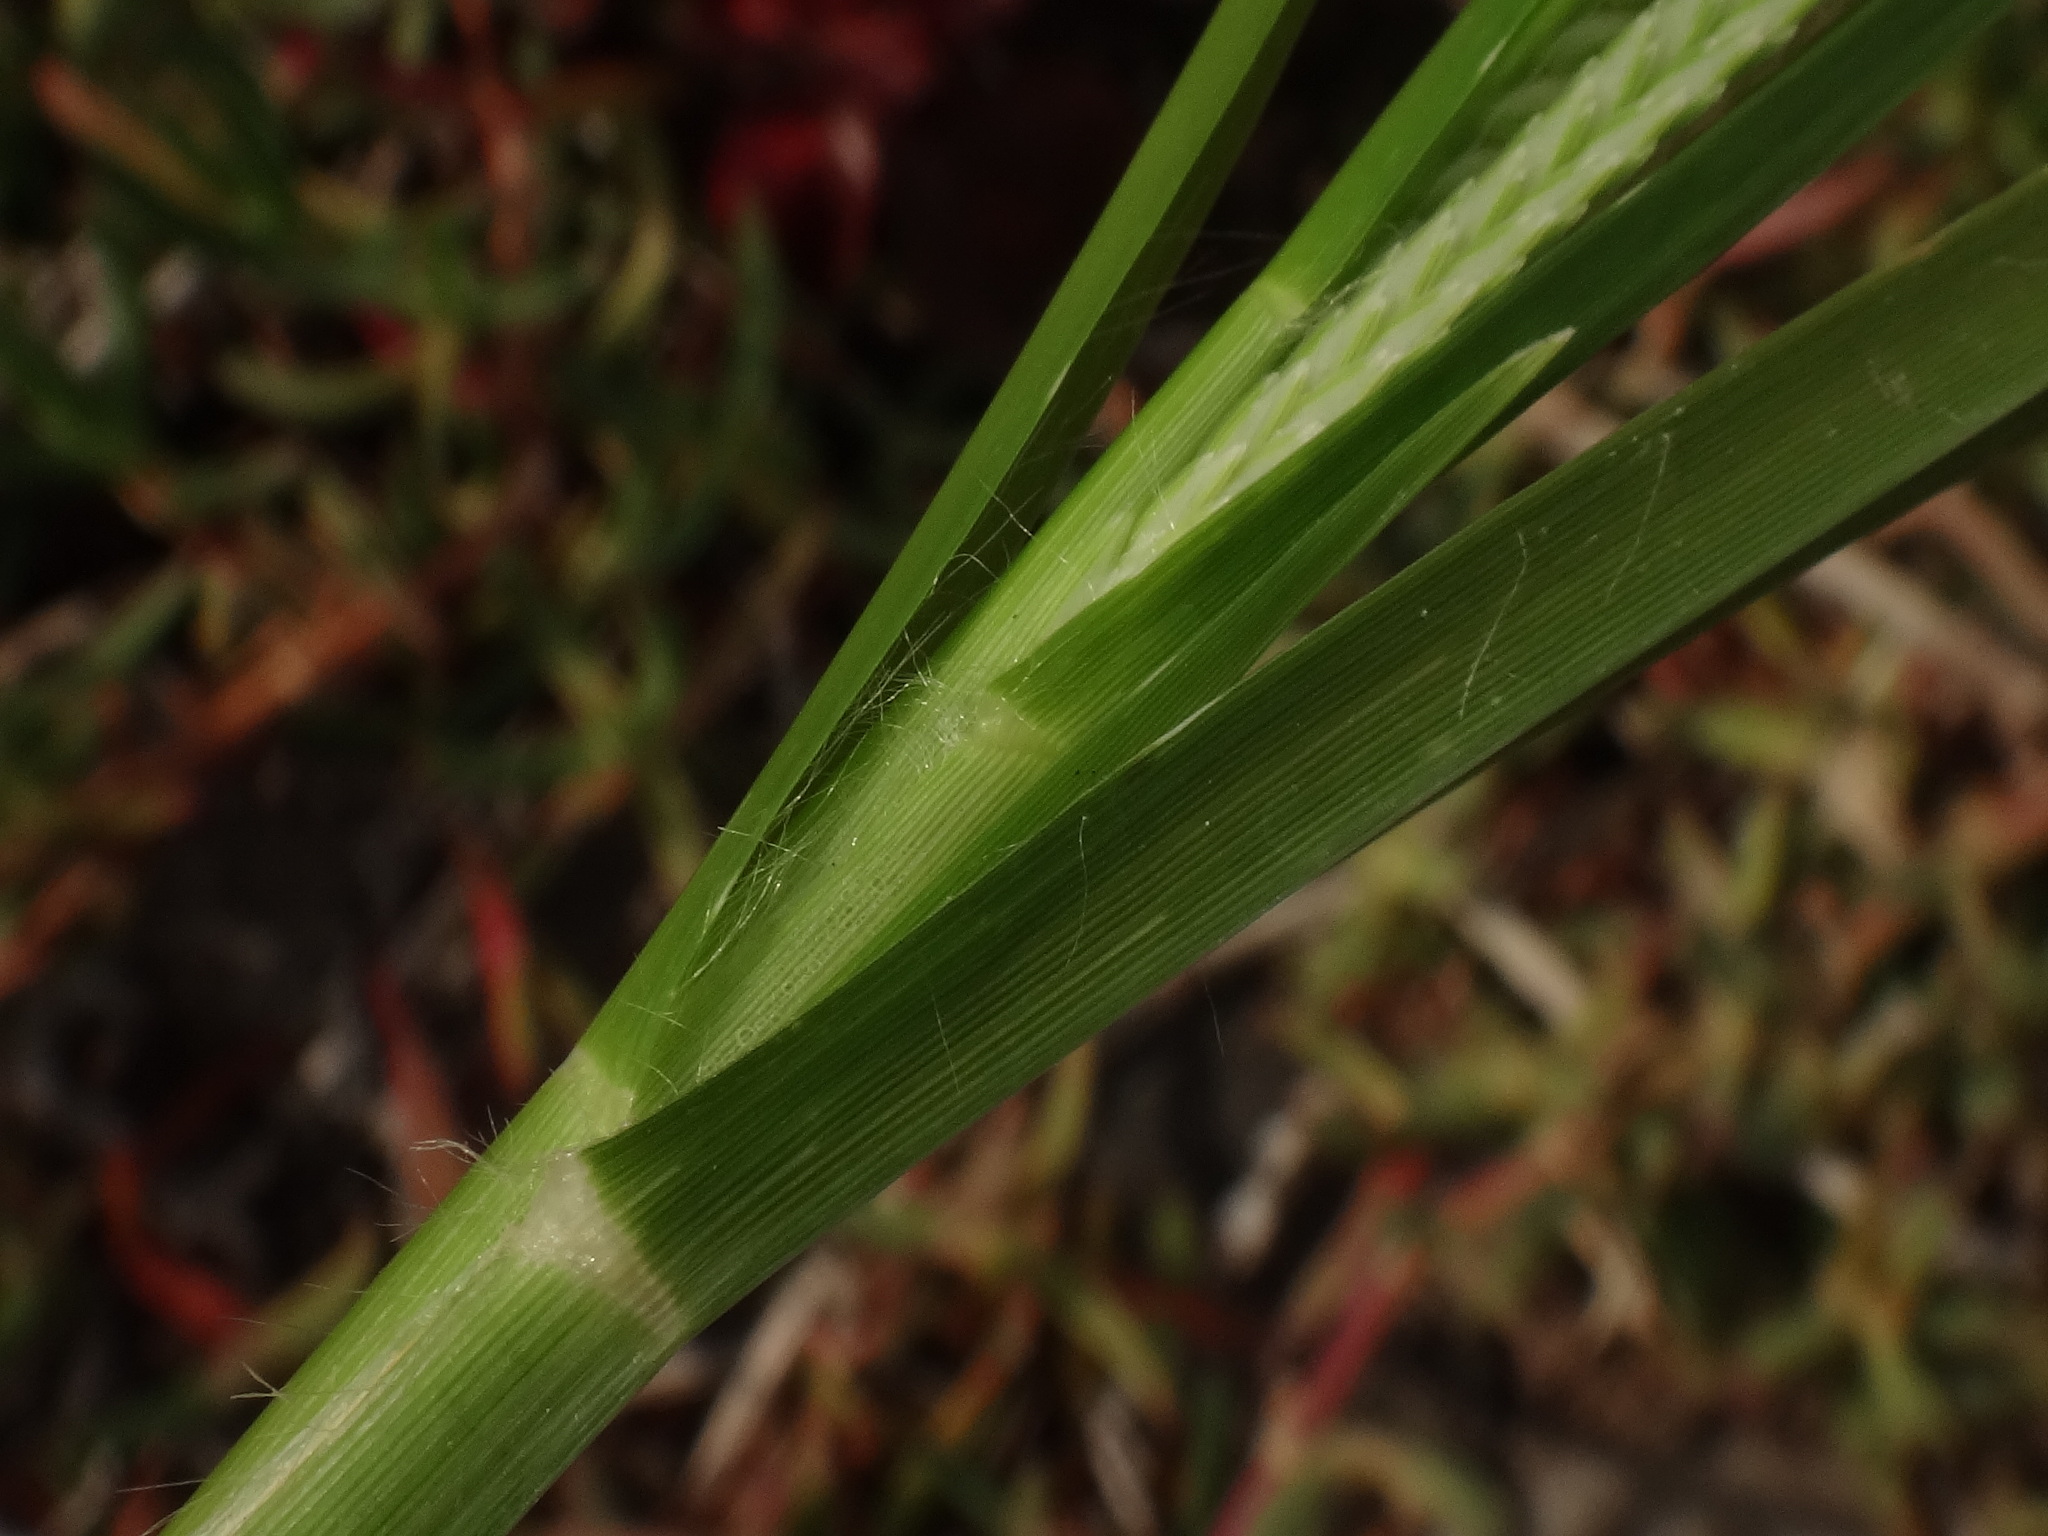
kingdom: Plantae
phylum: Tracheophyta
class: Liliopsida
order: Poales
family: Poaceae
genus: Eleusine
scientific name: Eleusine indica
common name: Yard-grass
